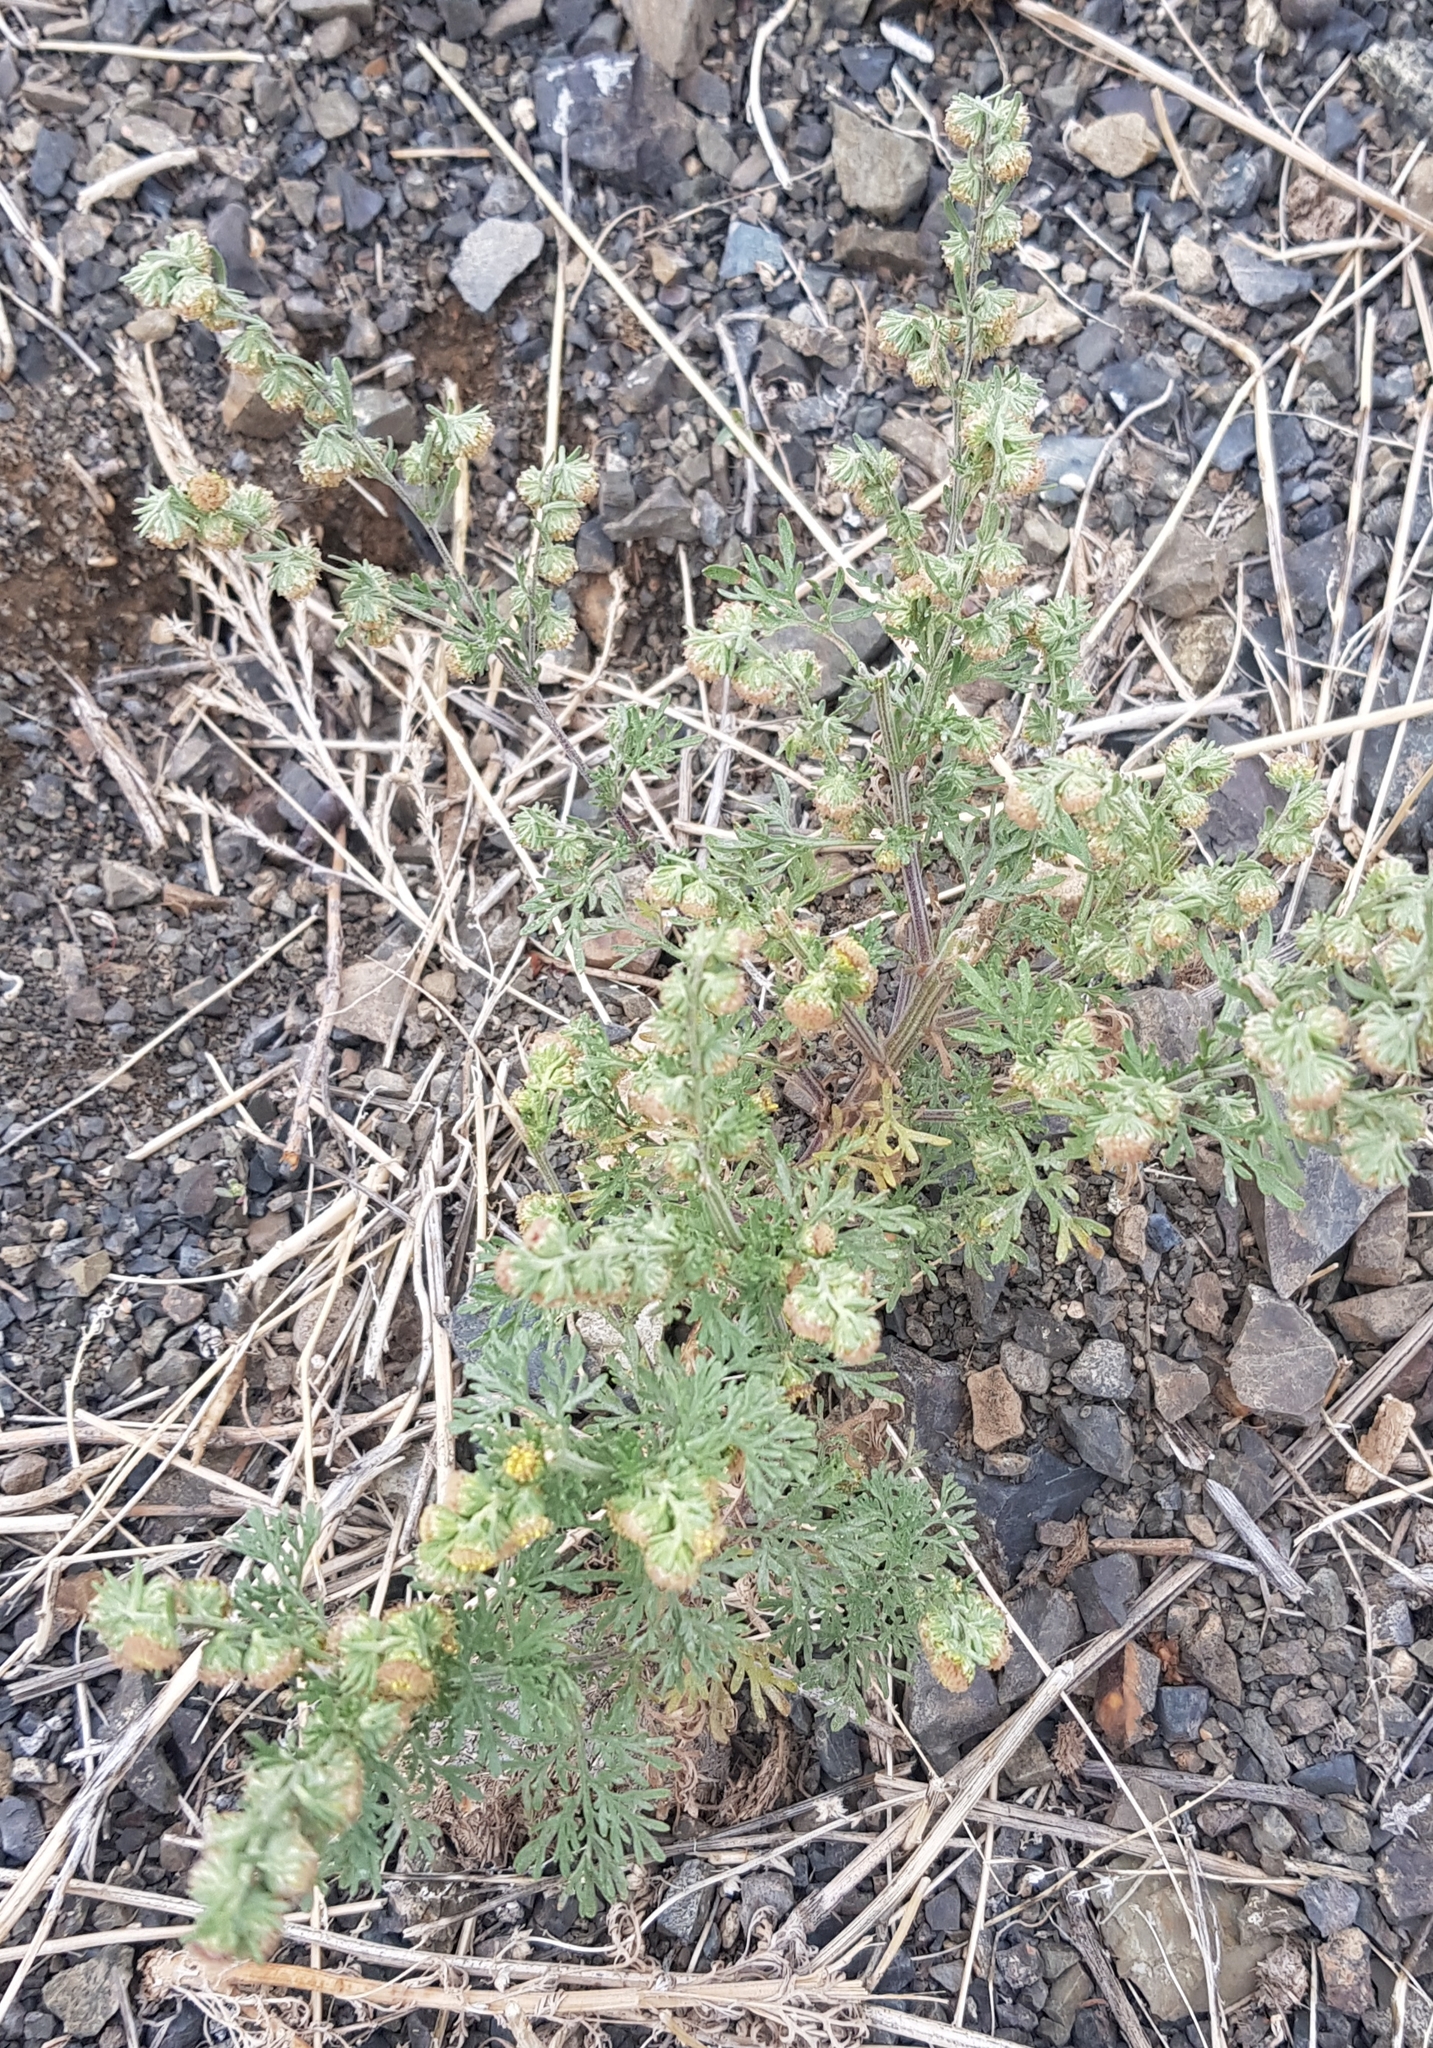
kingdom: Plantae
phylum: Tracheophyta
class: Magnoliopsida
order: Asterales
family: Asteraceae
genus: Artemisia
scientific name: Artemisia sieversiana
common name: Sieversian wormwood
